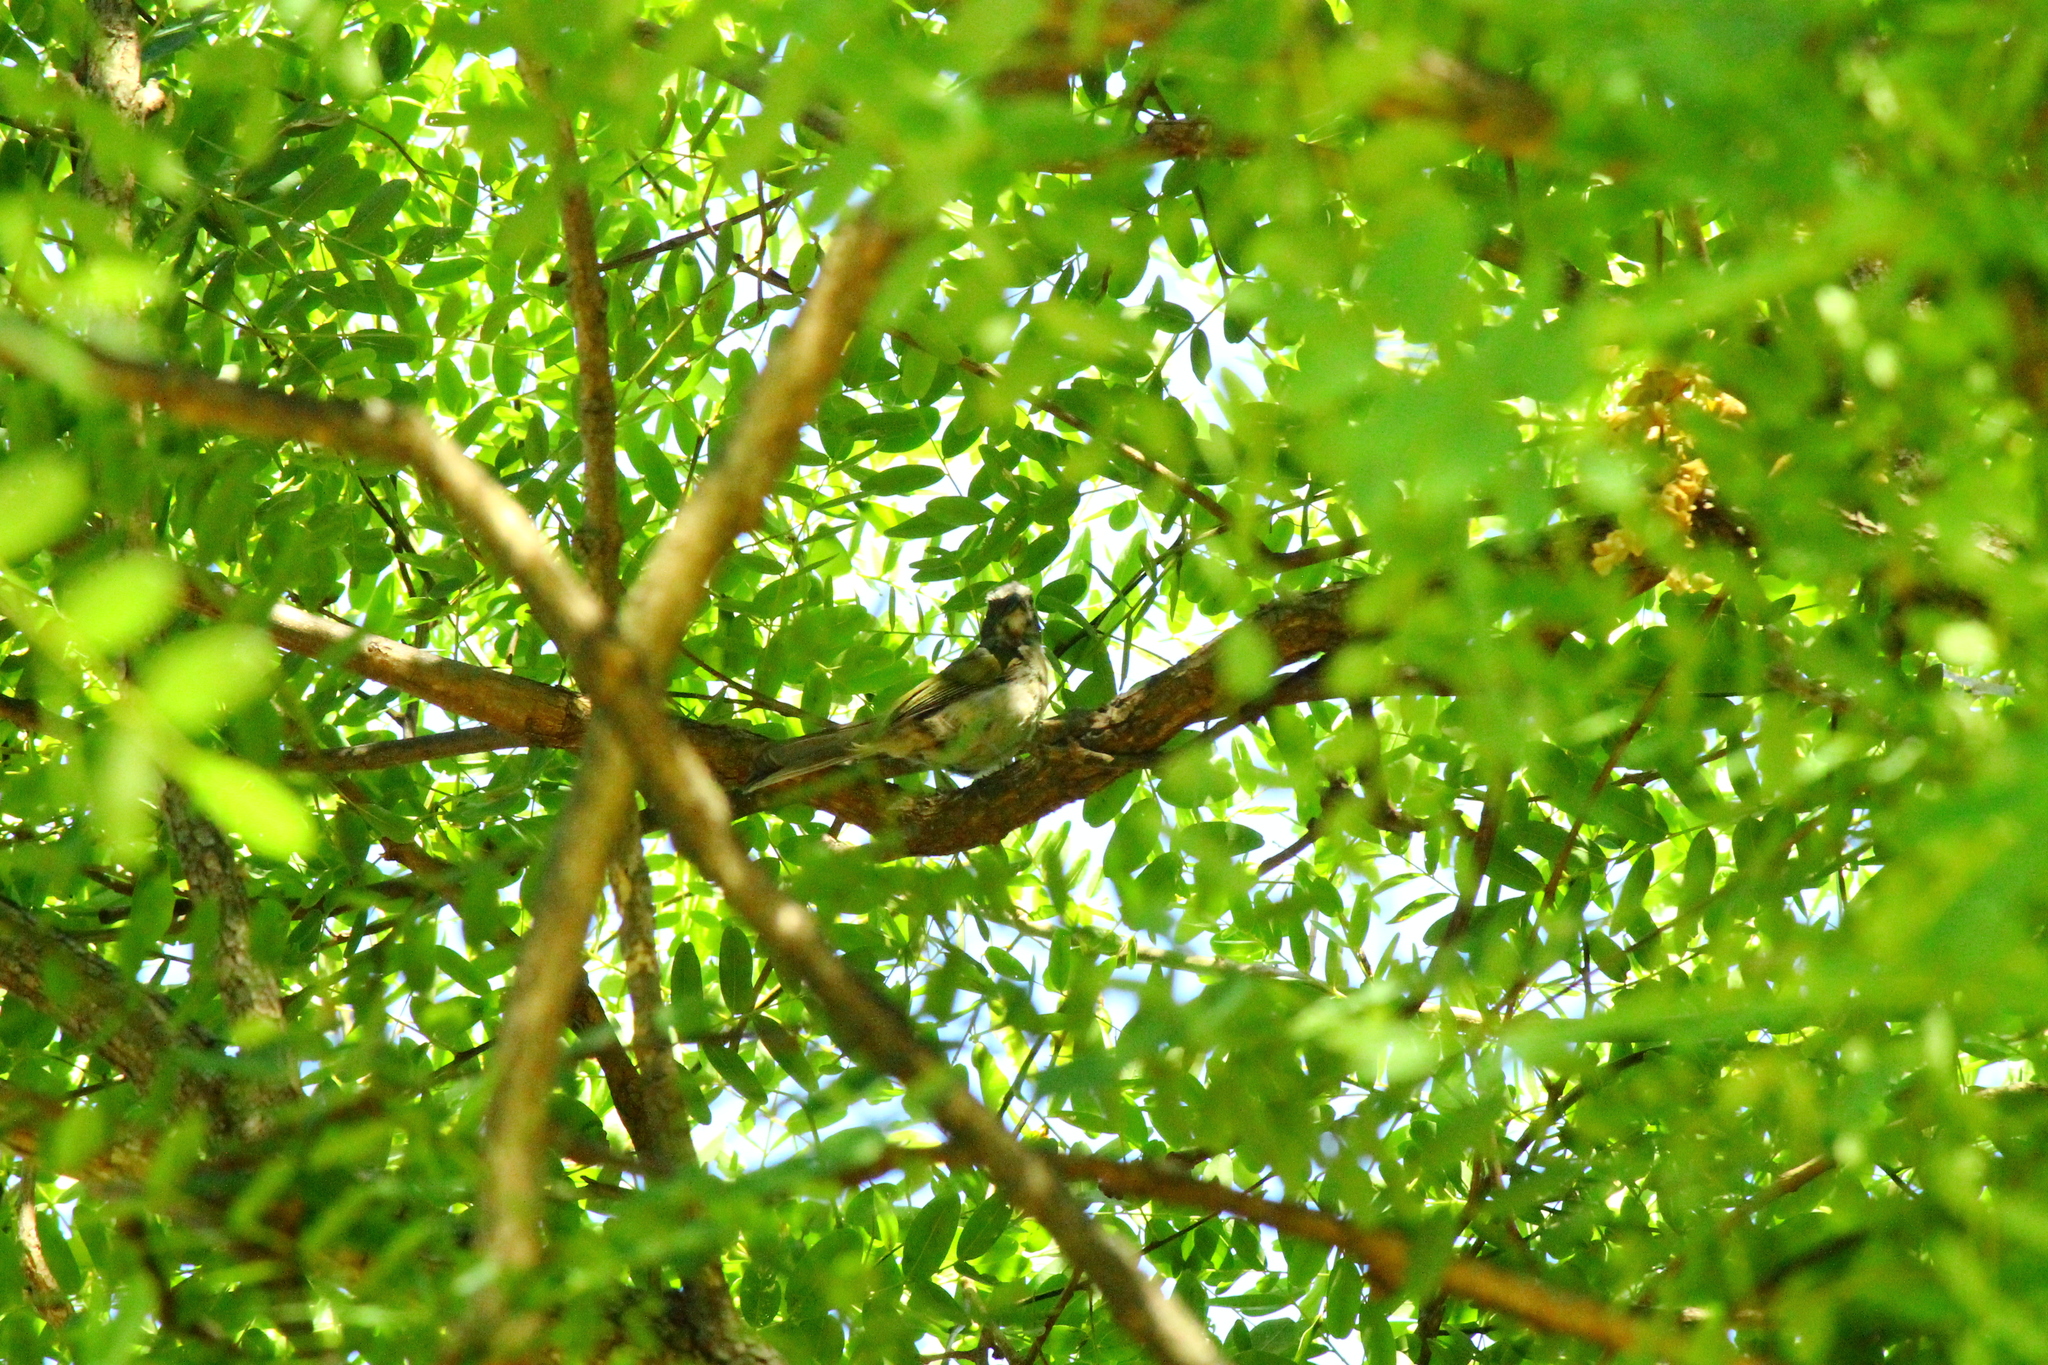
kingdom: Animalia
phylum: Chordata
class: Aves
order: Passeriformes
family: Thraupidae
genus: Saltator
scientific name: Saltator similis
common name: Green-winged saltator
